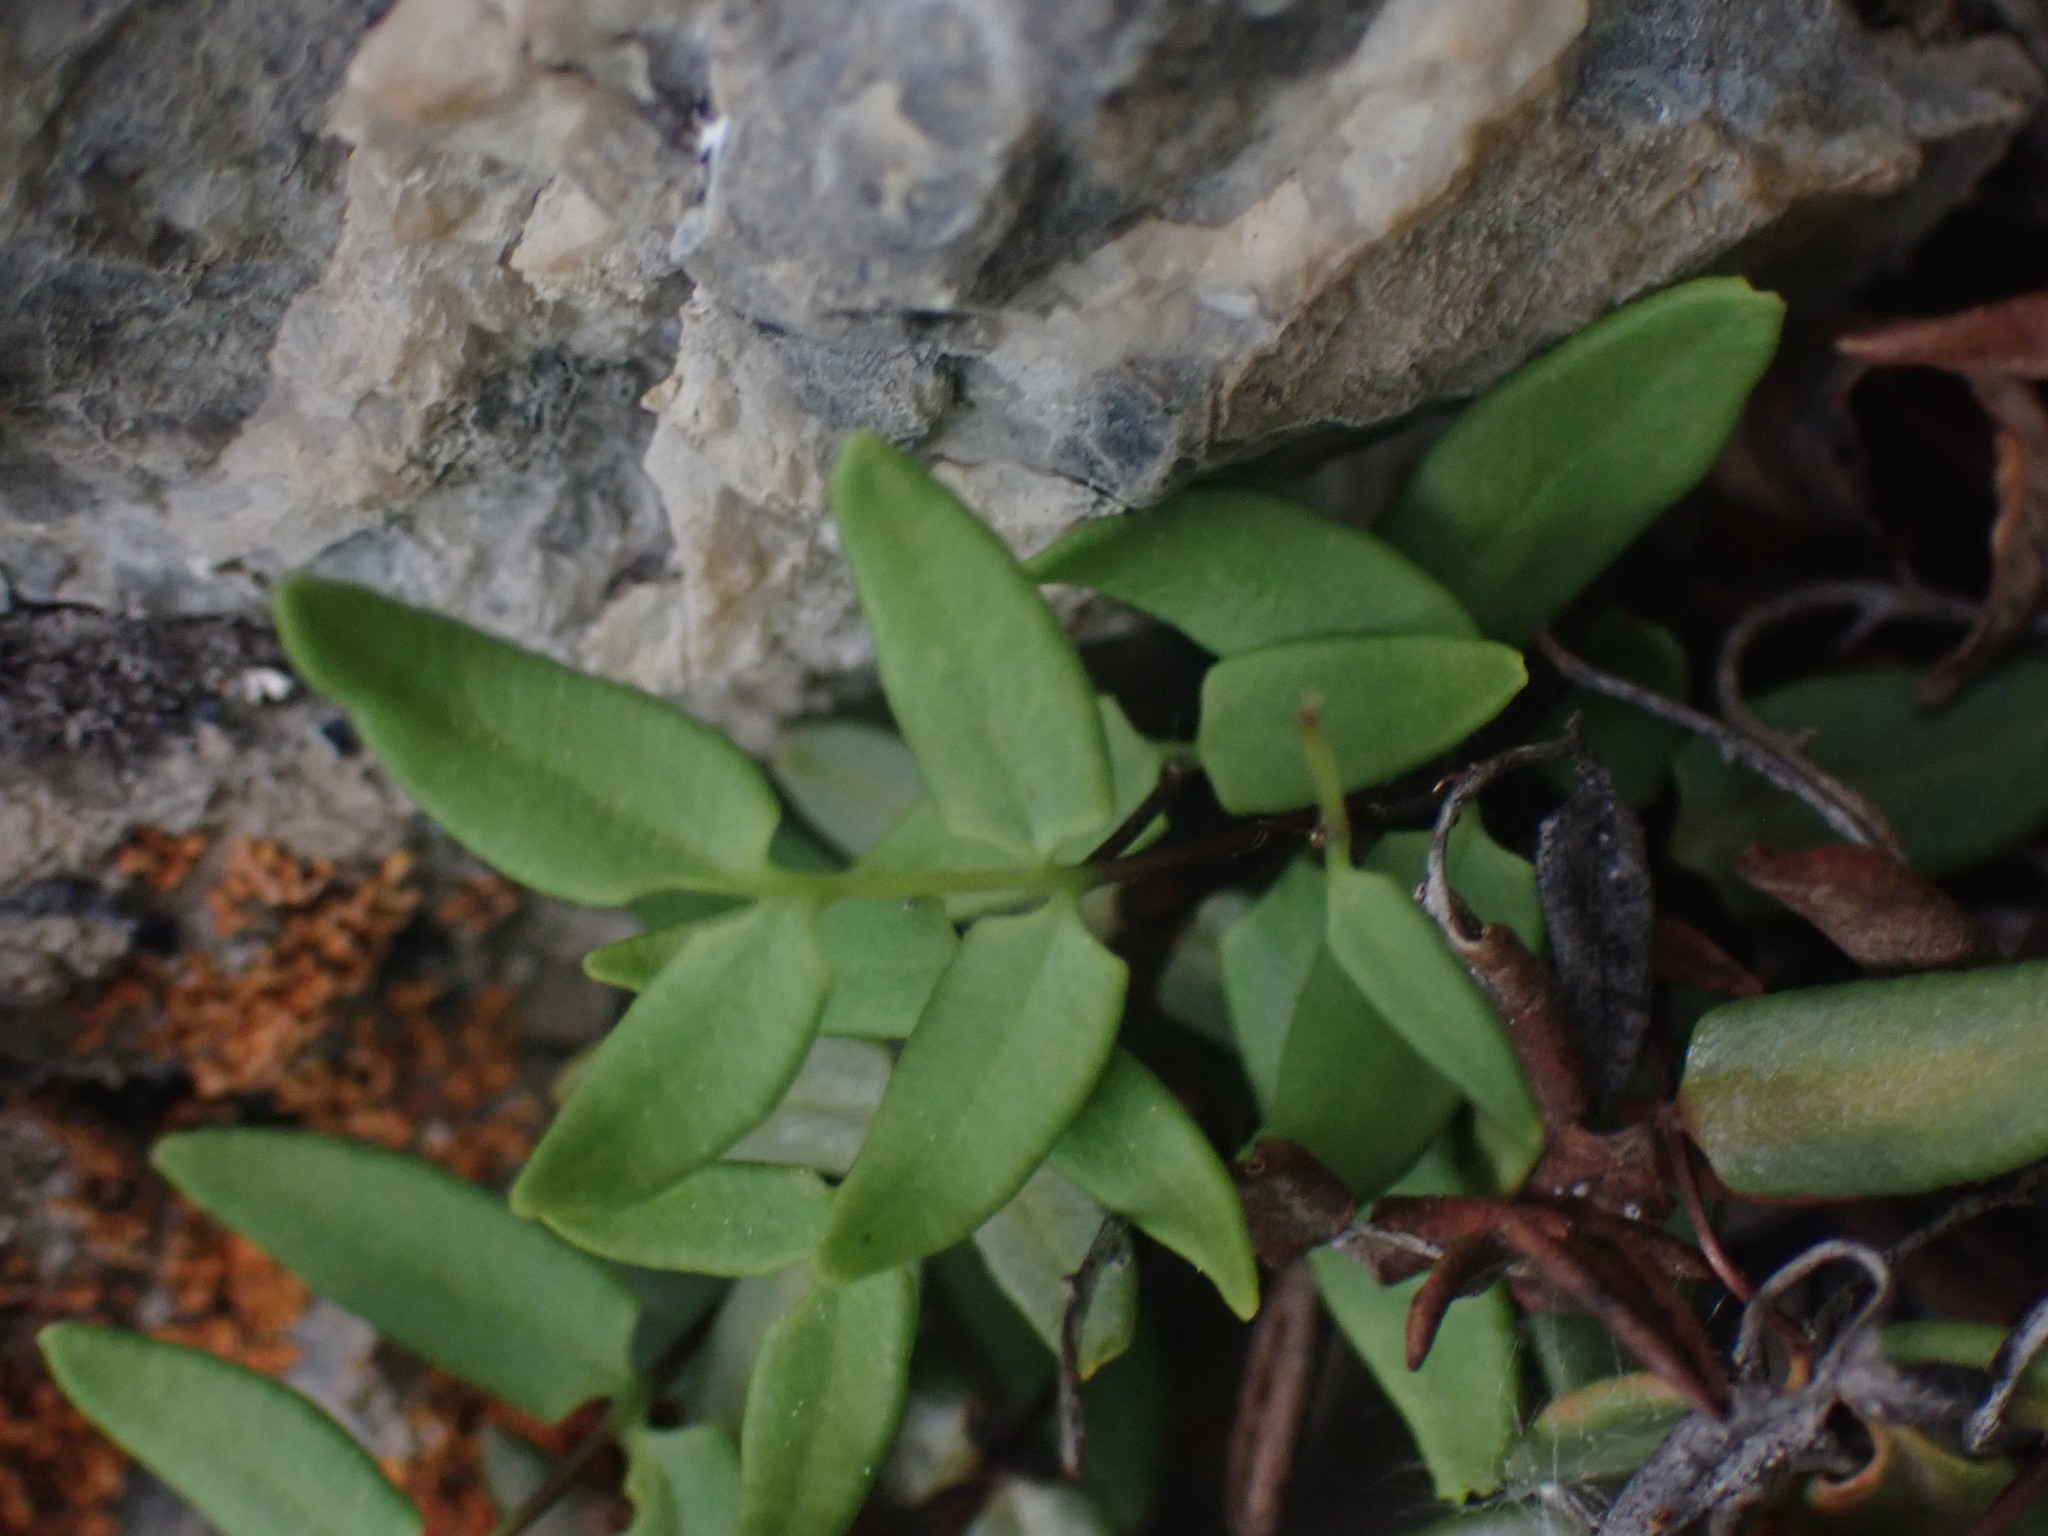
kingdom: Plantae
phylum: Tracheophyta
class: Polypodiopsida
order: Polypodiales
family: Pteridaceae
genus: Pellaea
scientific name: Pellaea glabella
